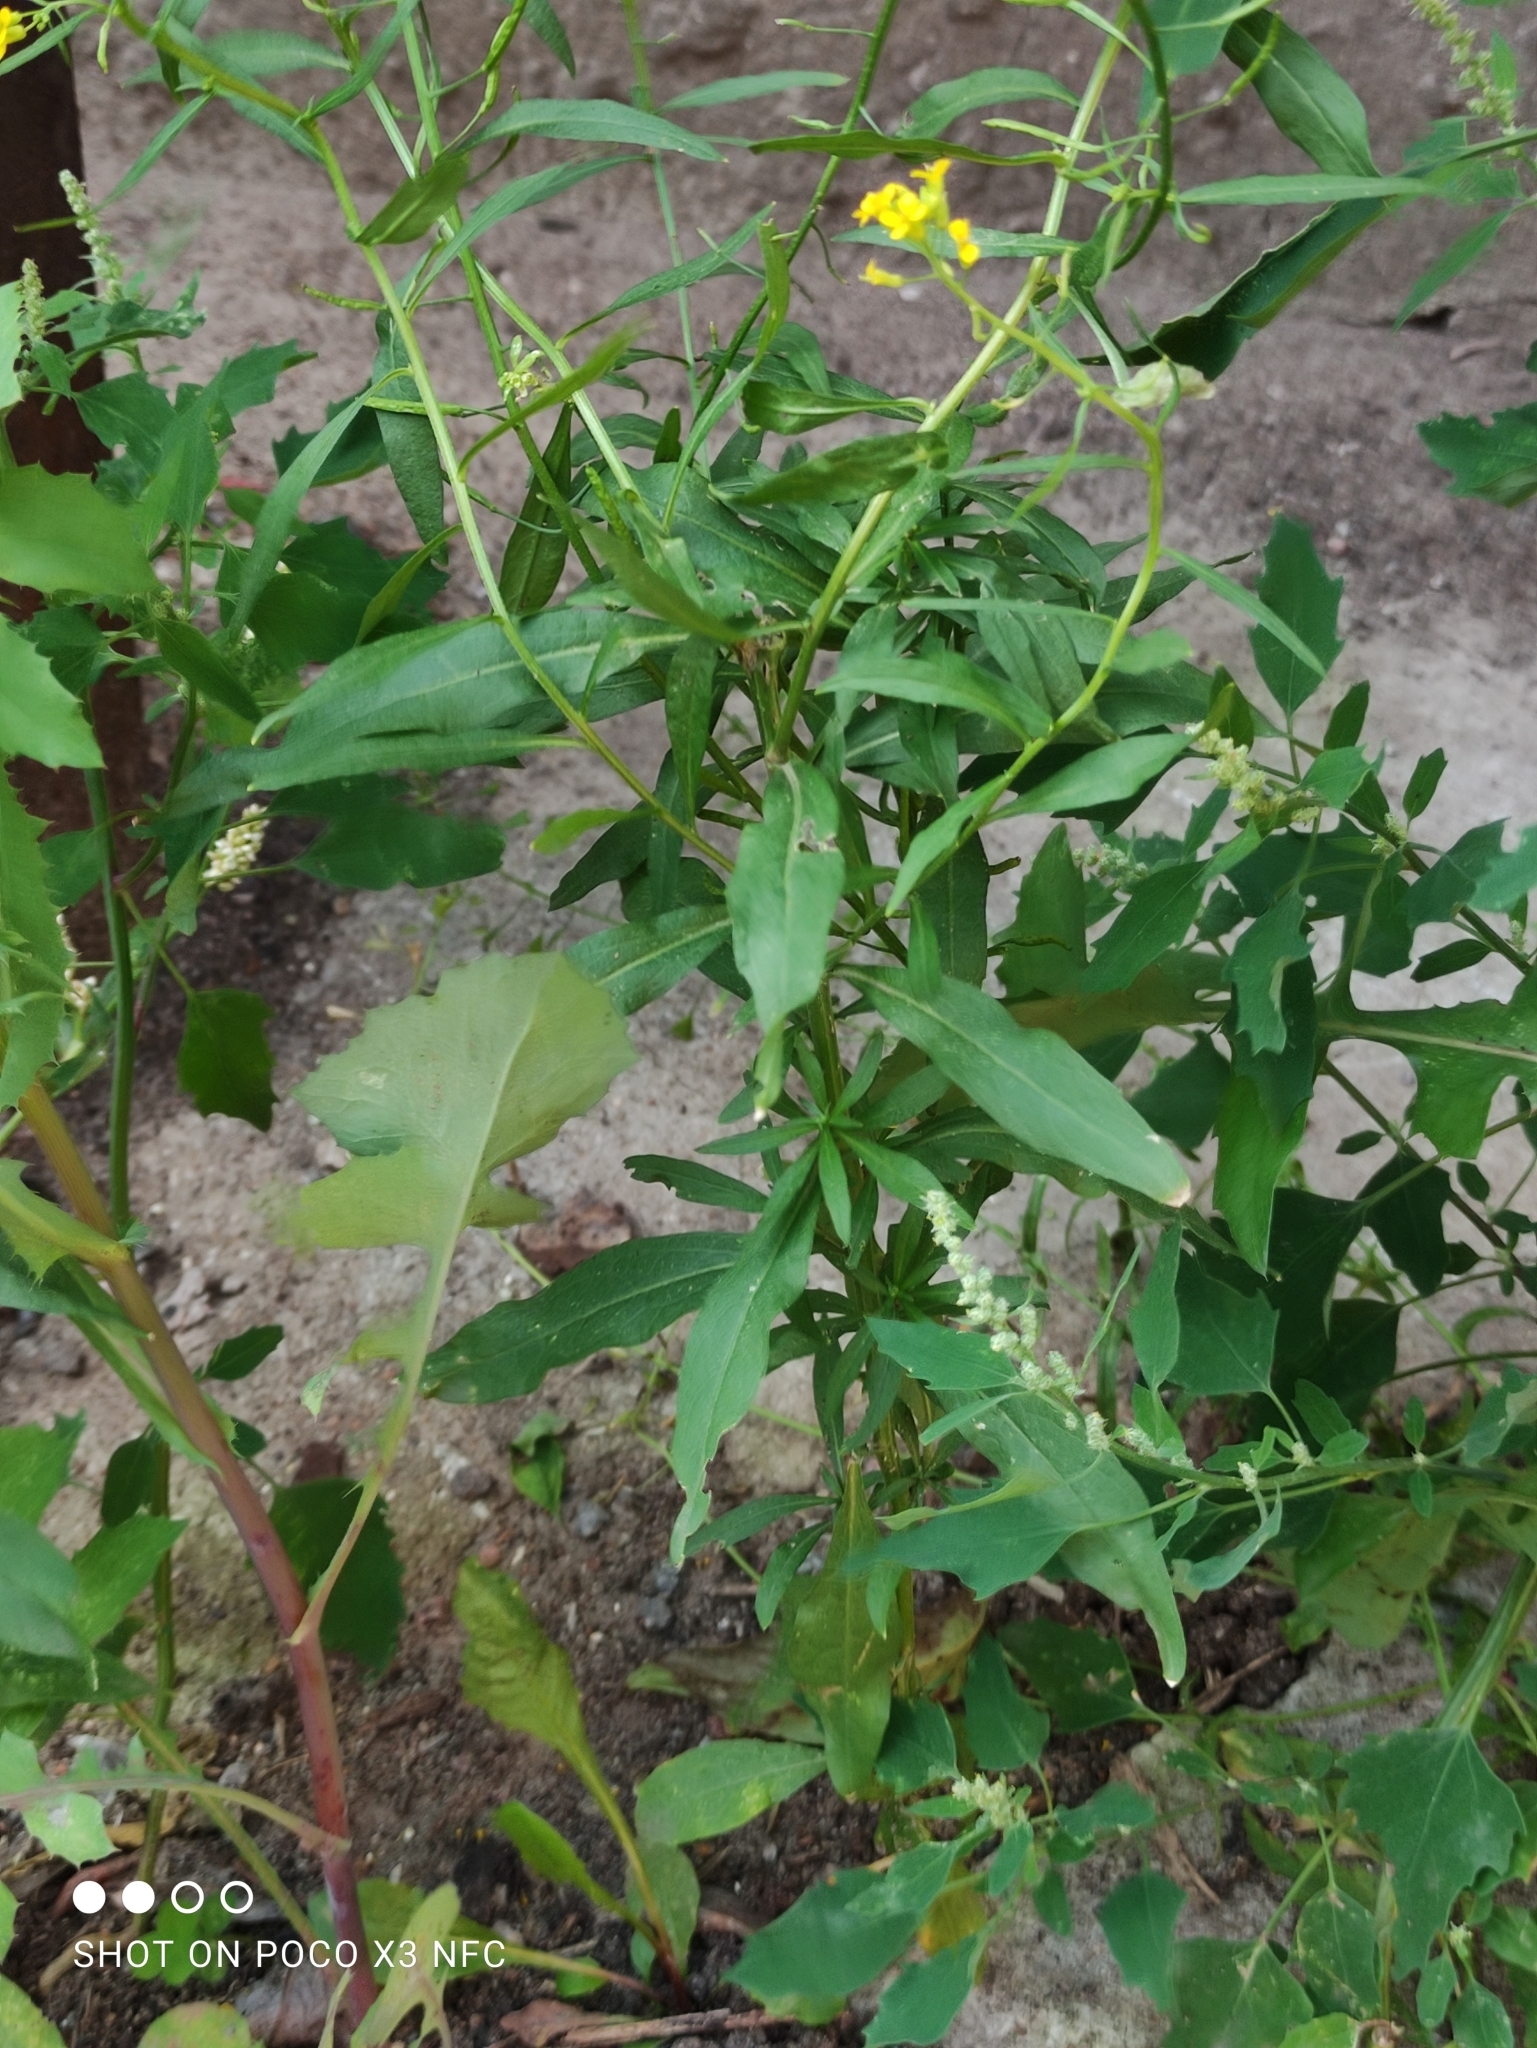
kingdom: Plantae
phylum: Tracheophyta
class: Magnoliopsida
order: Brassicales
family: Brassicaceae
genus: Erysimum
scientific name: Erysimum cheiranthoides
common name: Treacle mustard
